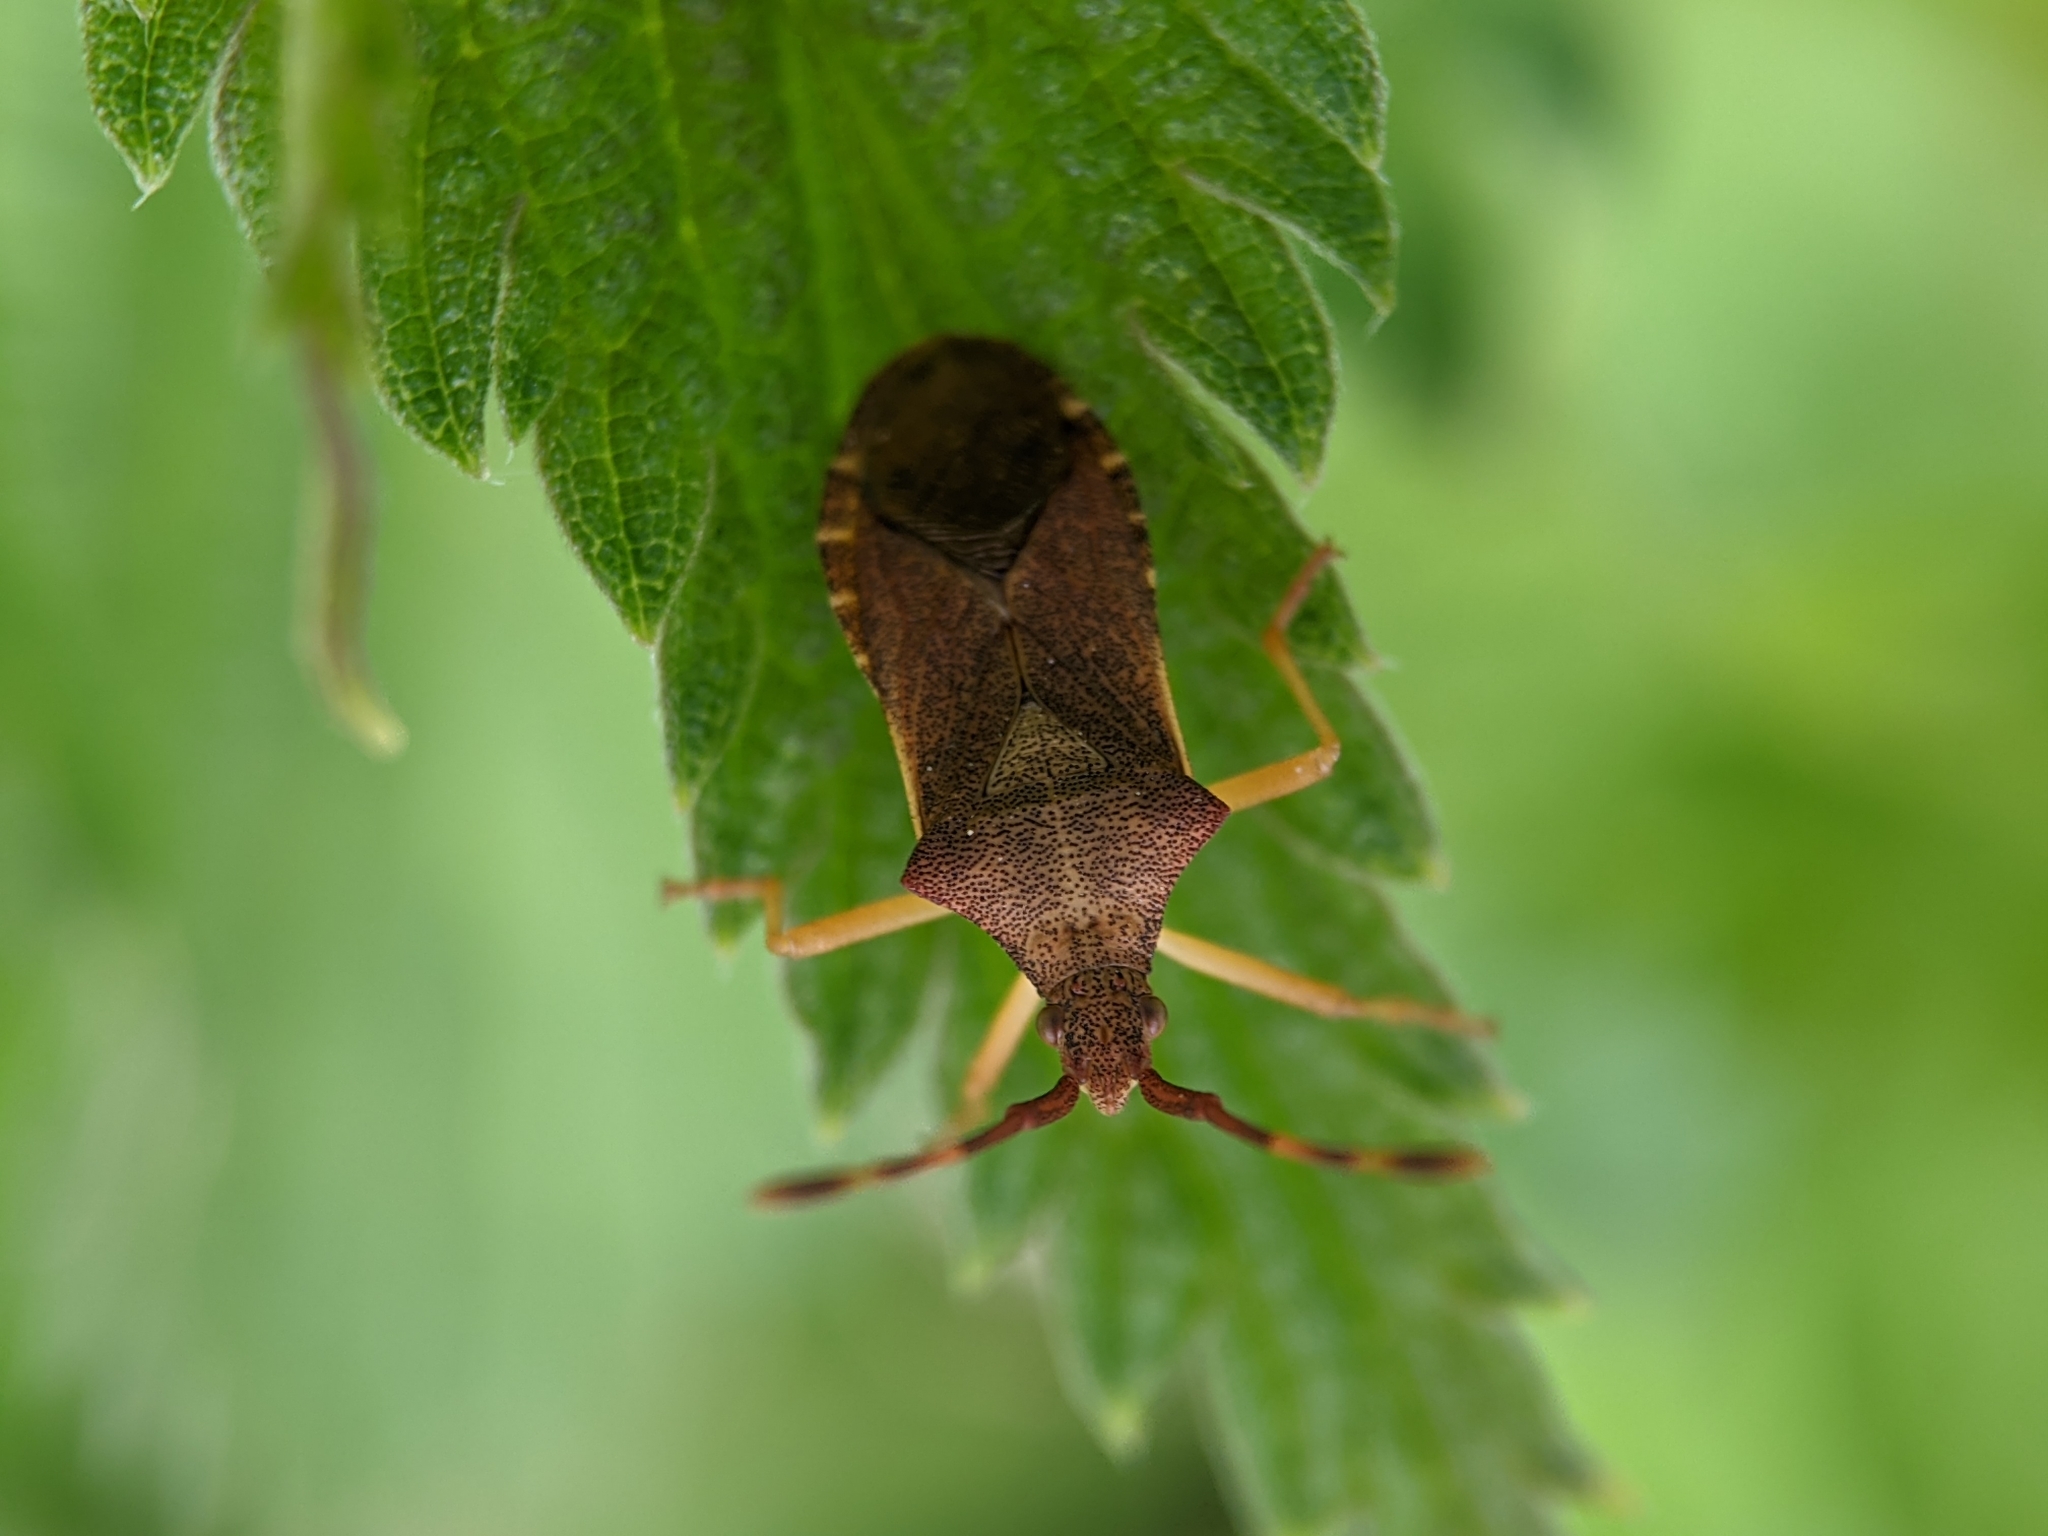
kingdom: Animalia
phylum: Arthropoda
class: Insecta
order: Hemiptera
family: Coreidae
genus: Gonocerus
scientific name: Gonocerus acuteangulatus
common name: Box bug
